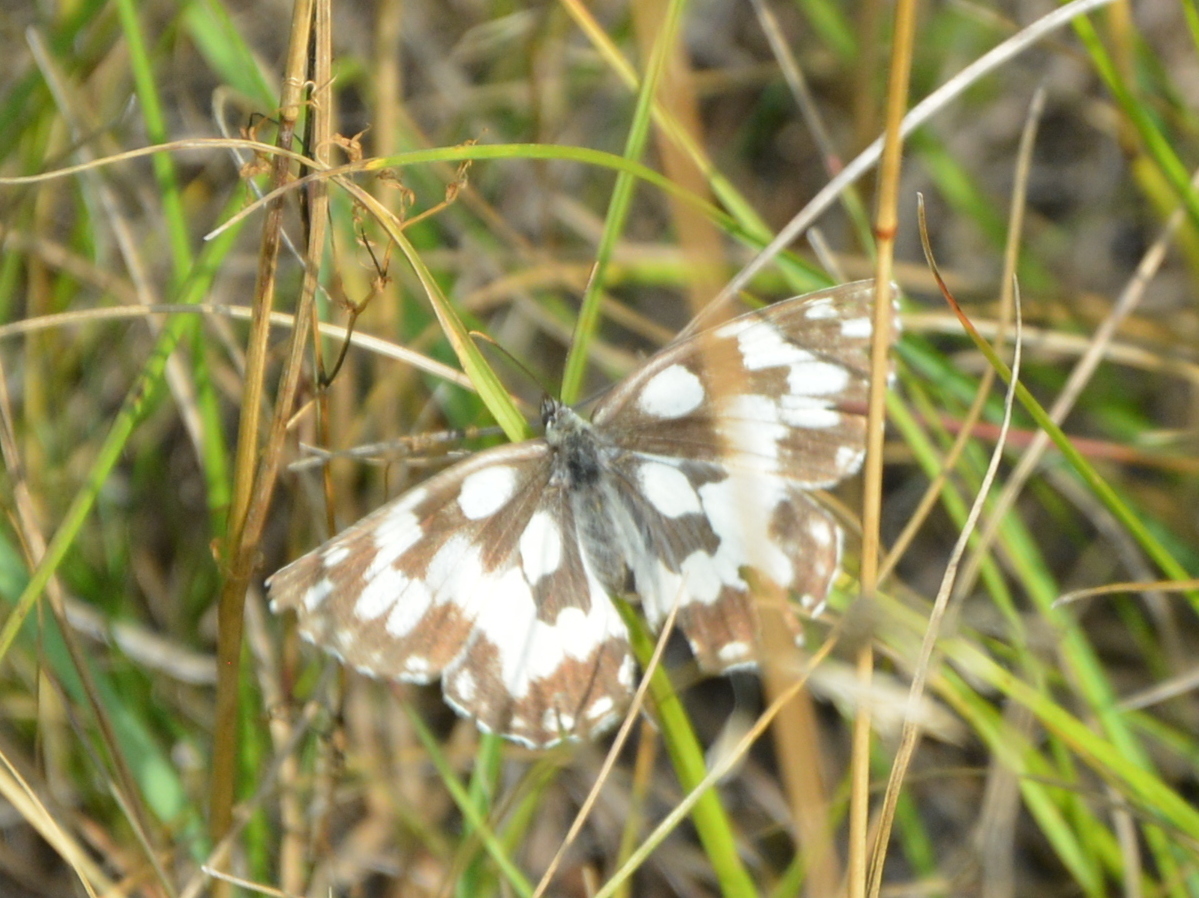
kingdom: Animalia
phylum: Arthropoda
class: Insecta
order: Lepidoptera
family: Nymphalidae
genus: Melanargia
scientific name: Melanargia galathea
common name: Marbled white
